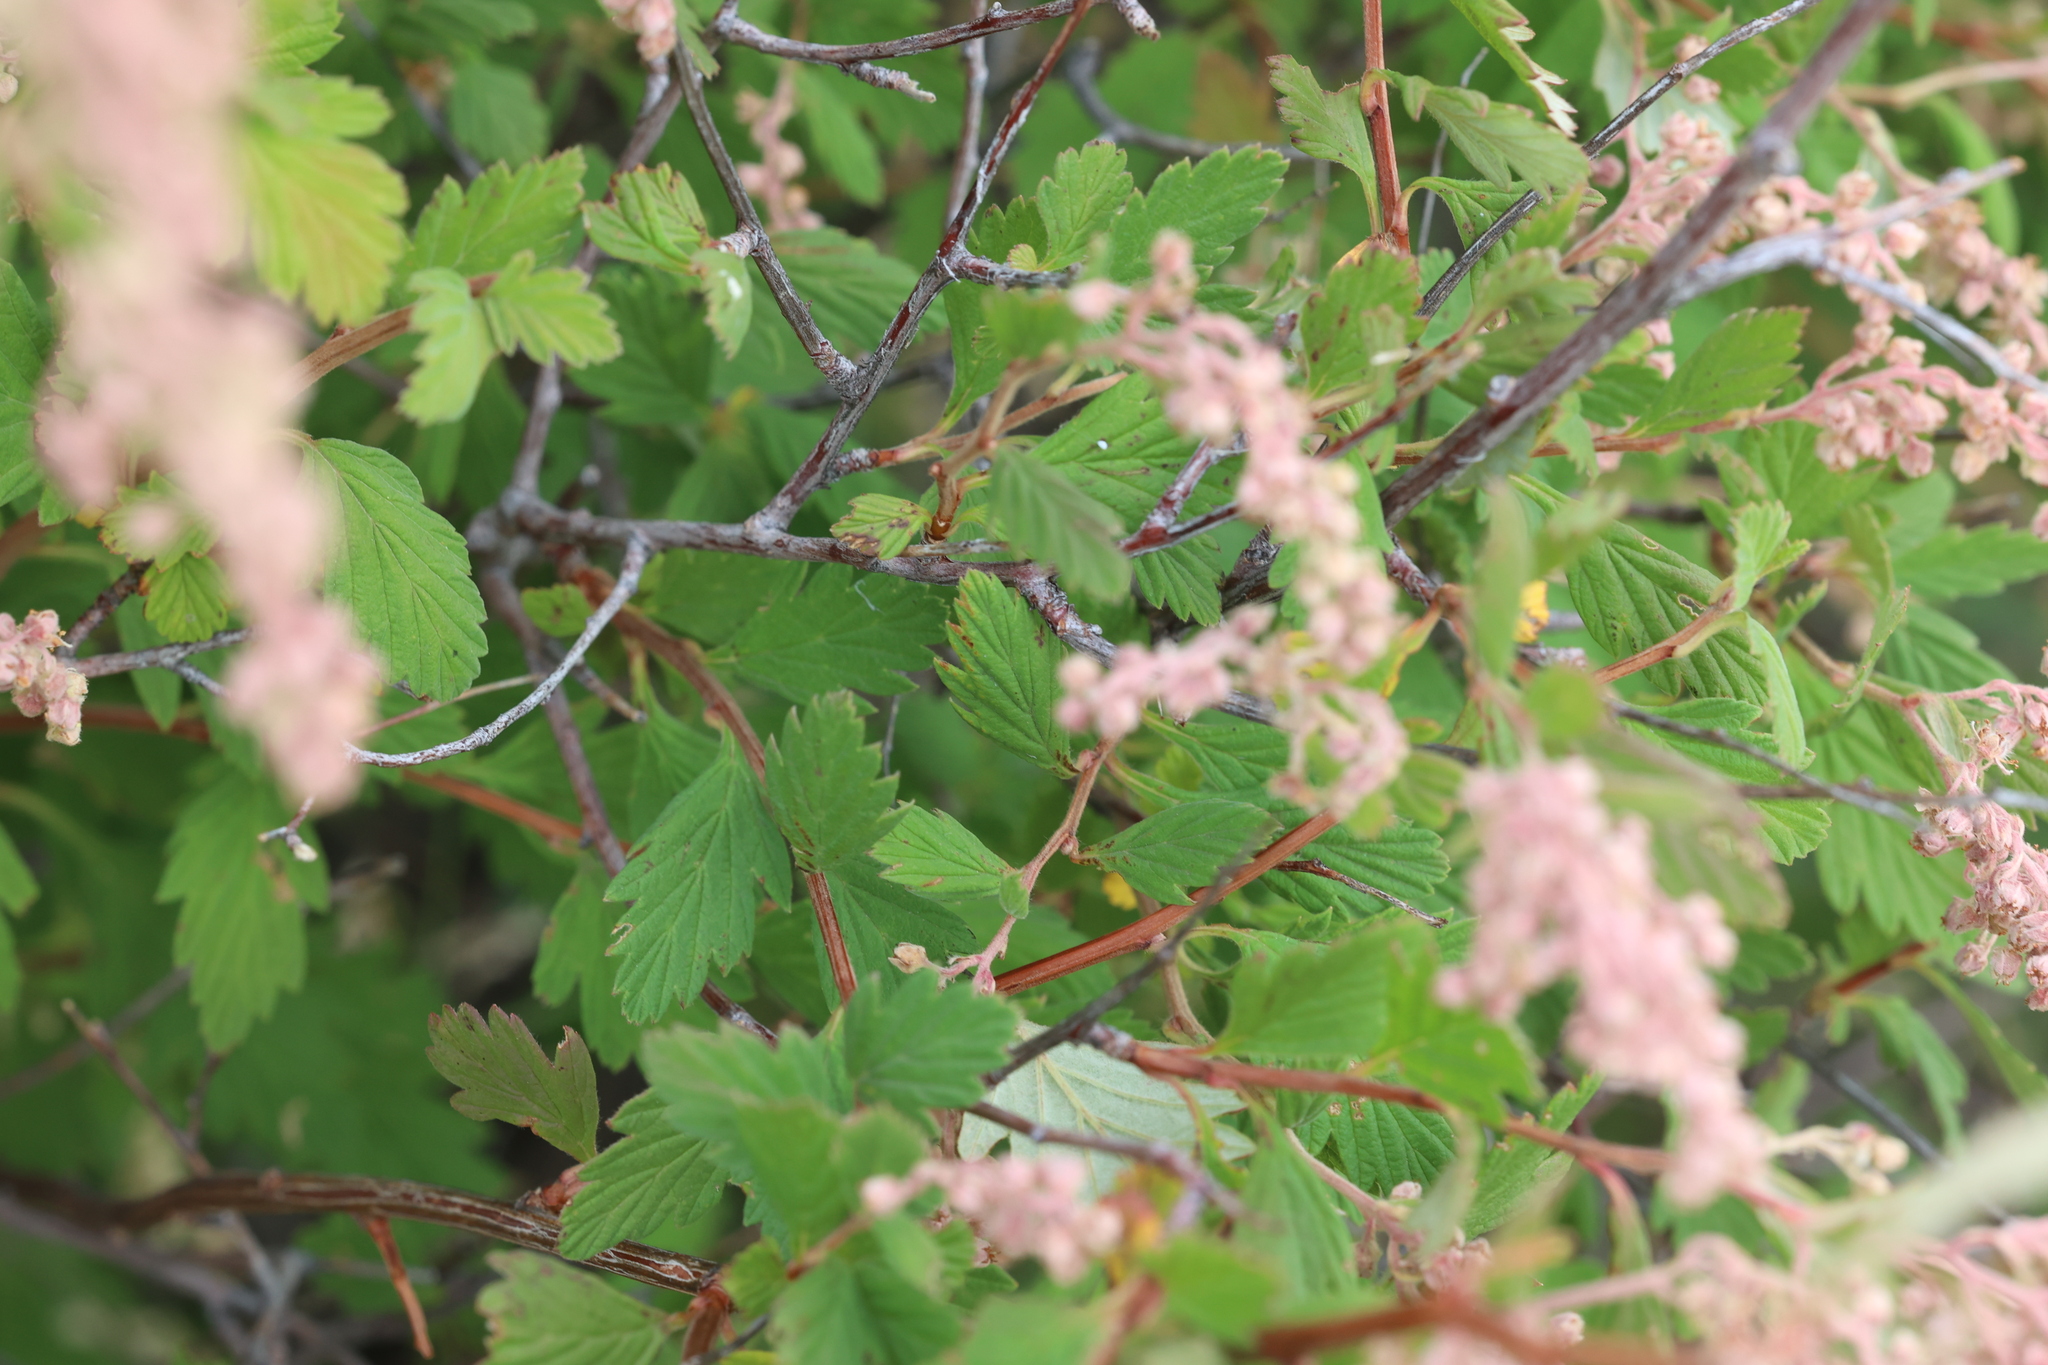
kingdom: Plantae
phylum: Tracheophyta
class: Magnoliopsida
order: Rosales
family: Rosaceae
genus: Holodiscus
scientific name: Holodiscus discolor
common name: Oceanspray
